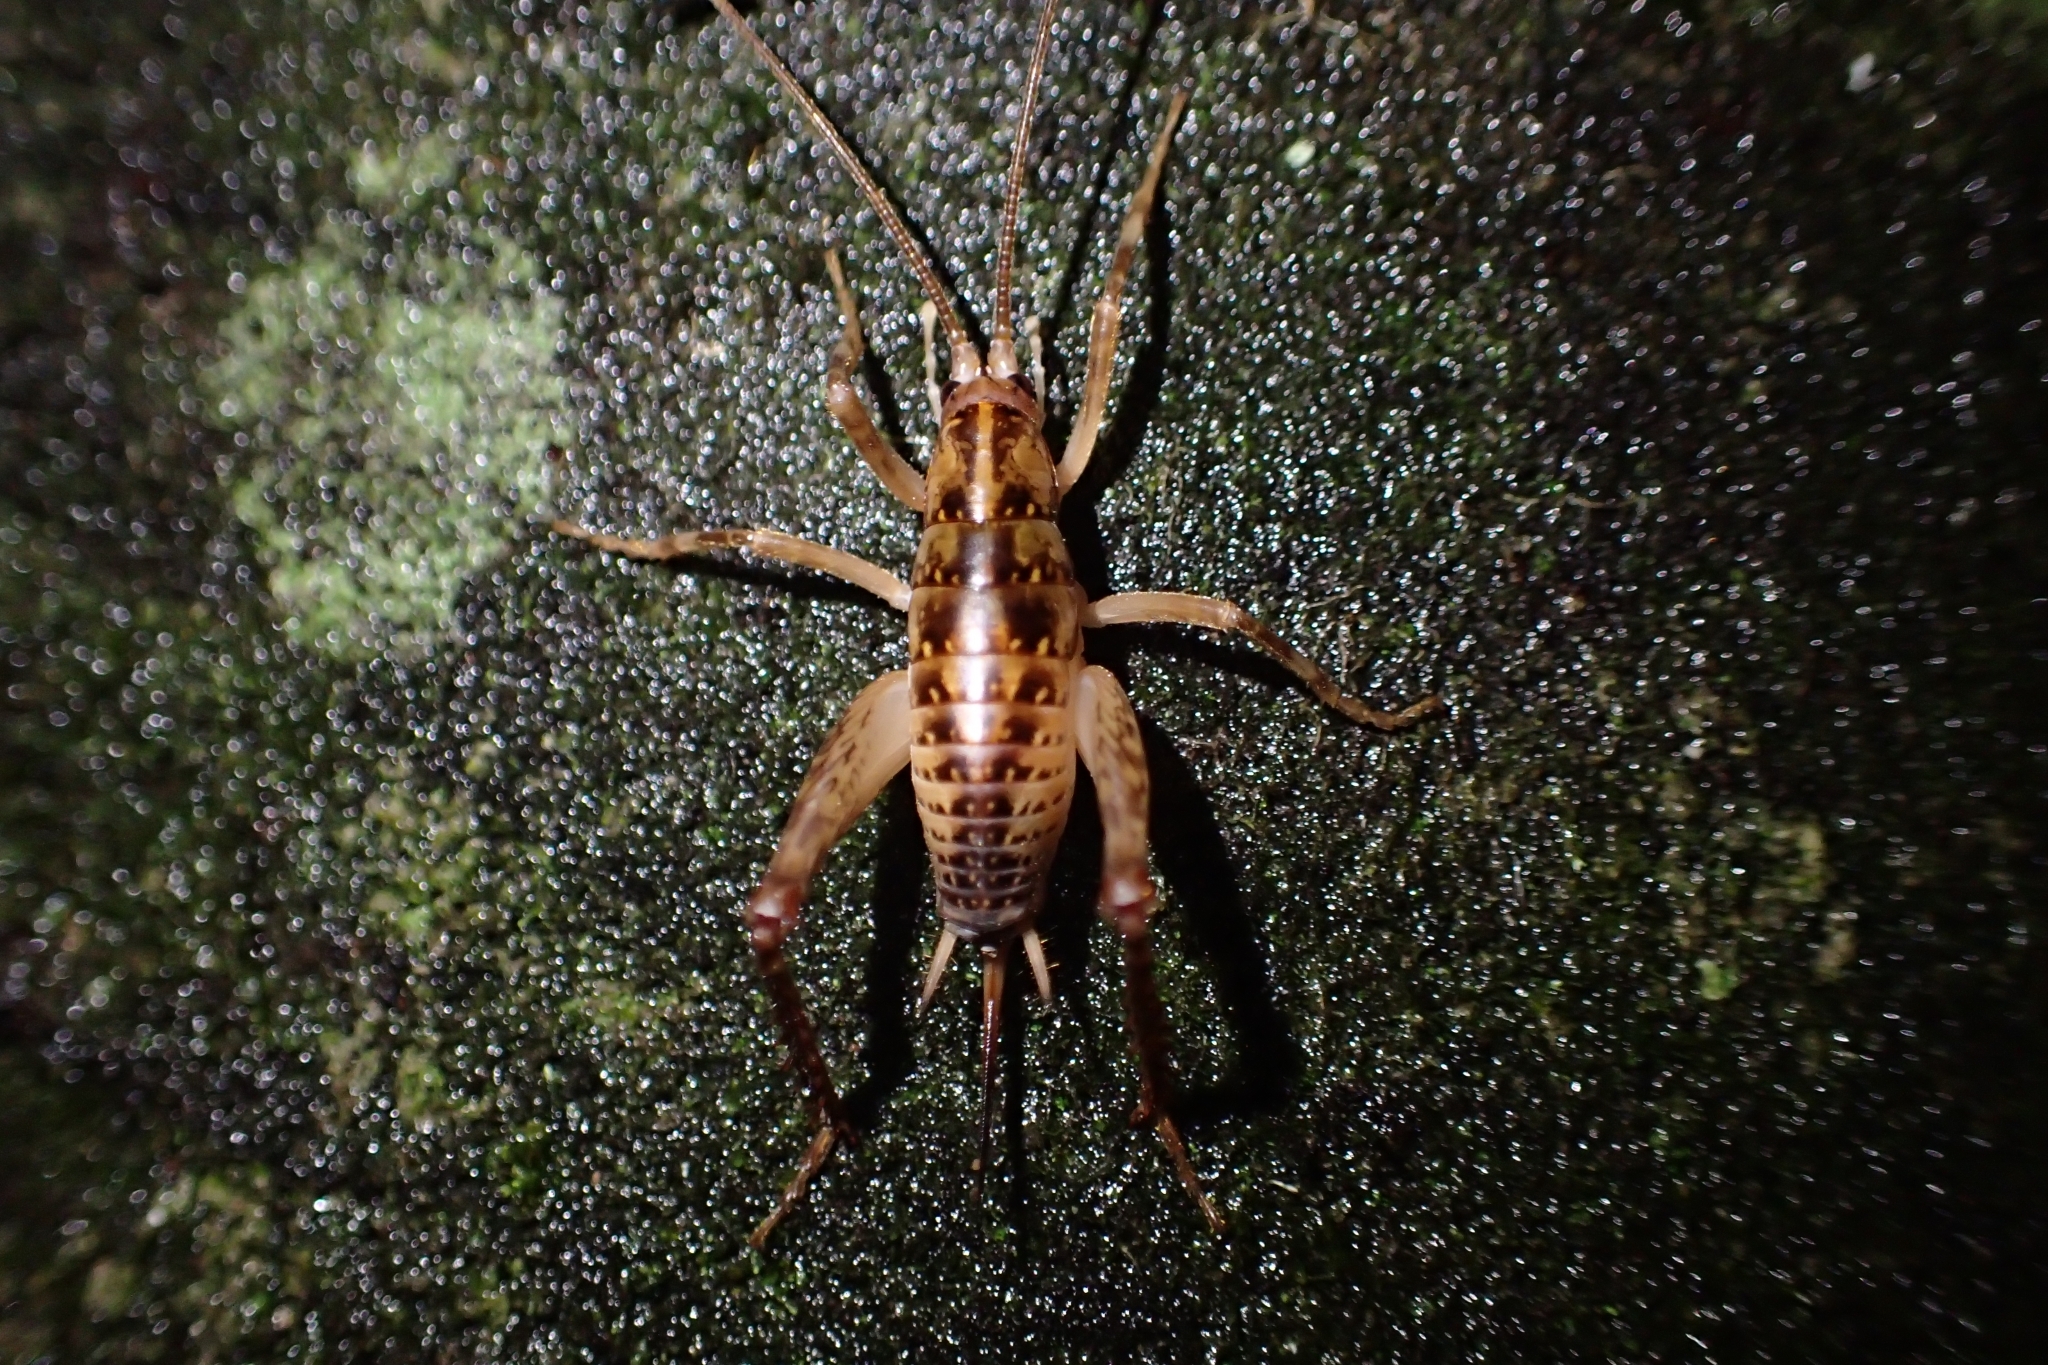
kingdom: Animalia
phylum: Arthropoda
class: Insecta
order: Orthoptera
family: Rhaphidophoridae
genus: Talitropsis
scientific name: Talitropsis sedilloti
